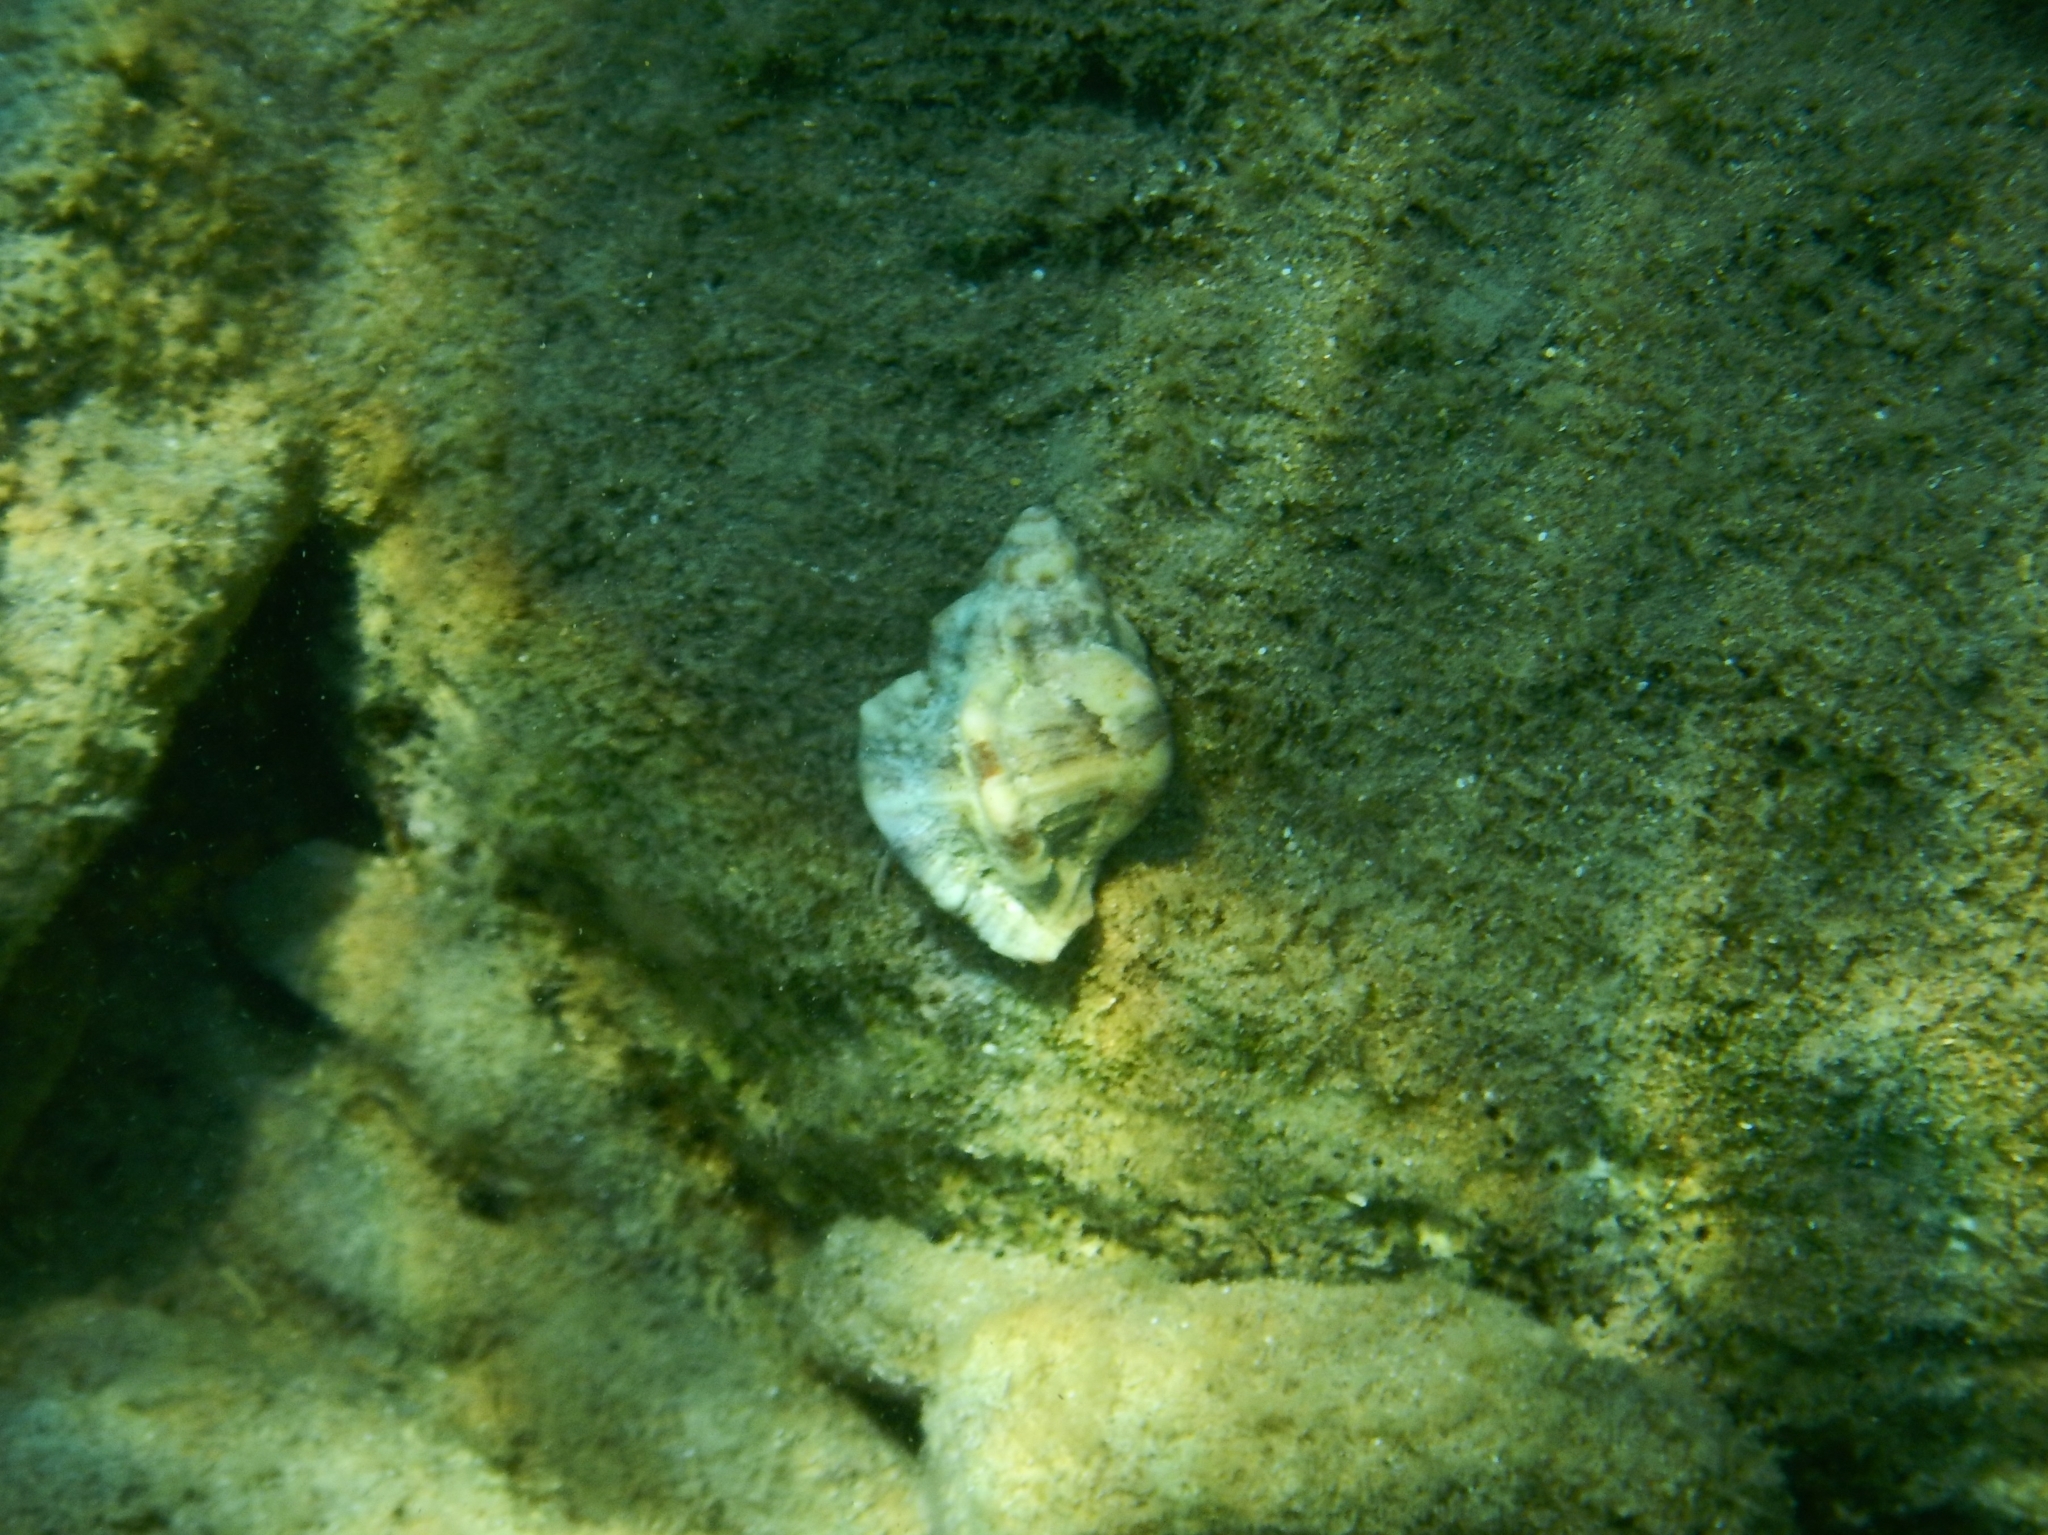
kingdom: Animalia
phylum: Mollusca
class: Gastropoda
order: Neogastropoda
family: Muricidae
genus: Hexaplex
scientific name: Hexaplex trunculus
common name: Banded dye-murex
